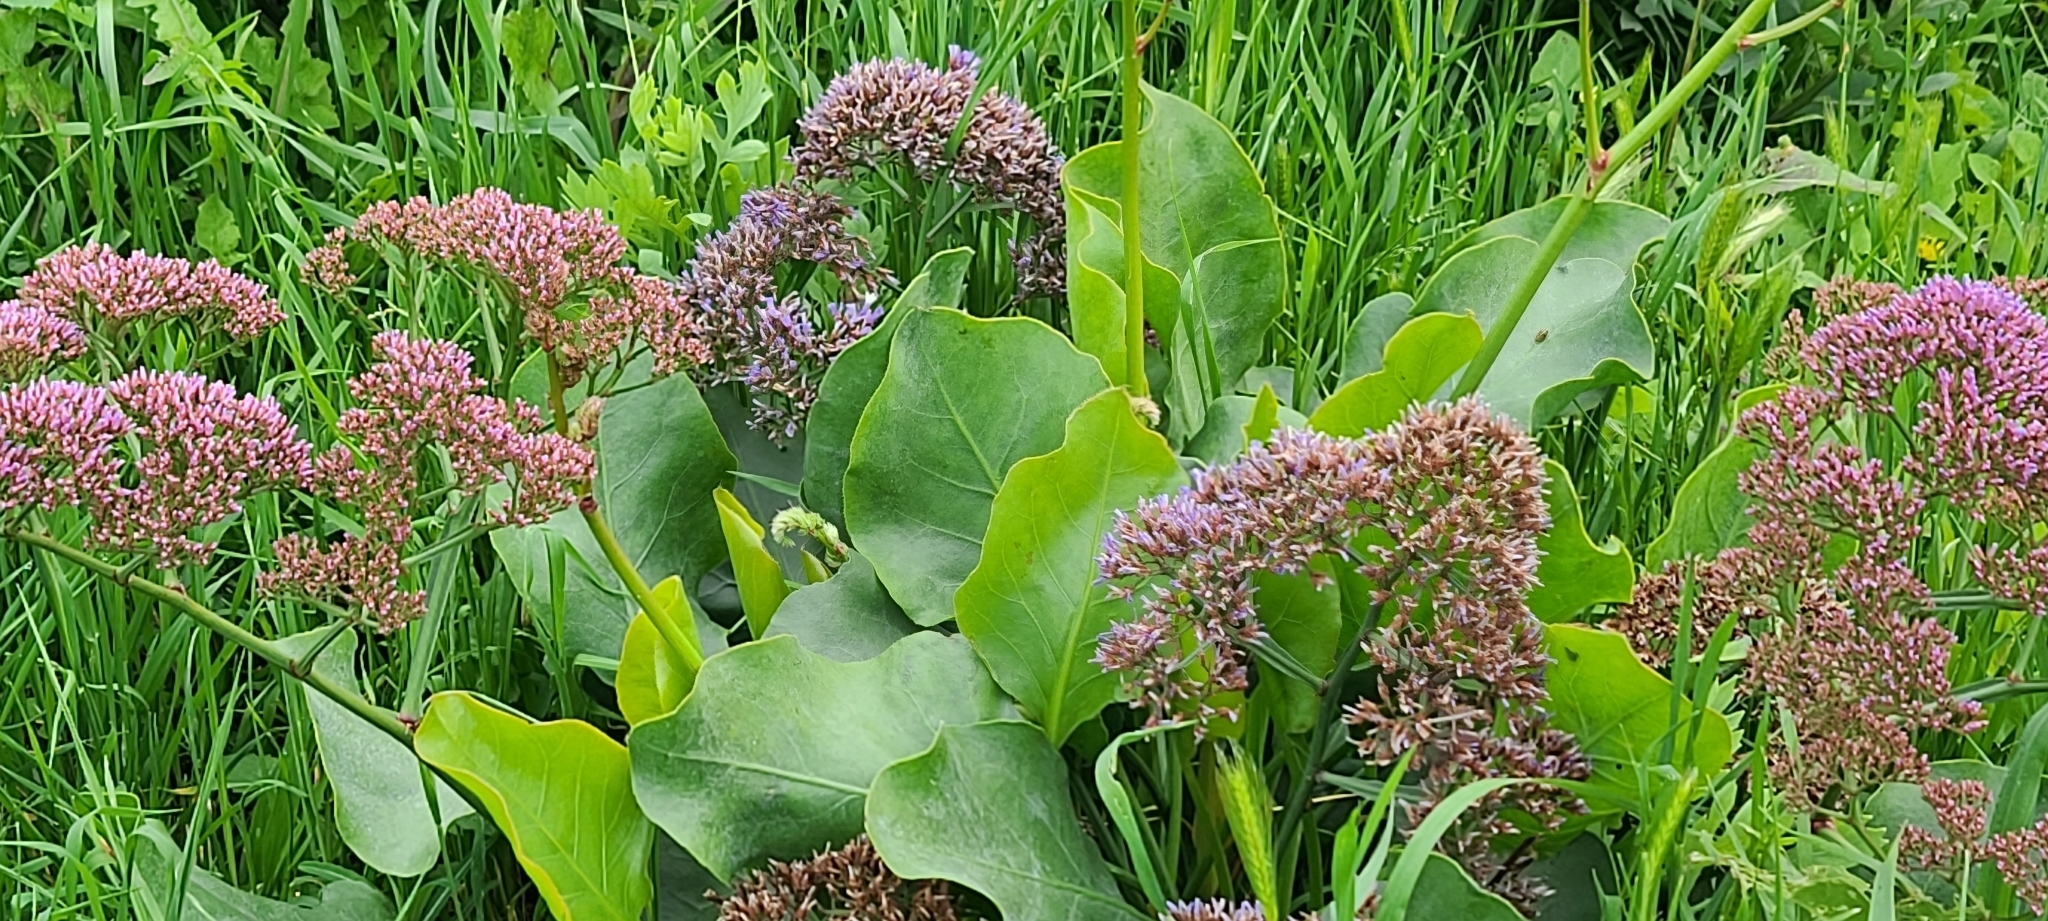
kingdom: Plantae
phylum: Tracheophyta
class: Magnoliopsida
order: Caryophyllales
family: Plumbaginaceae
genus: Limonium
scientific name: Limonium perezii
